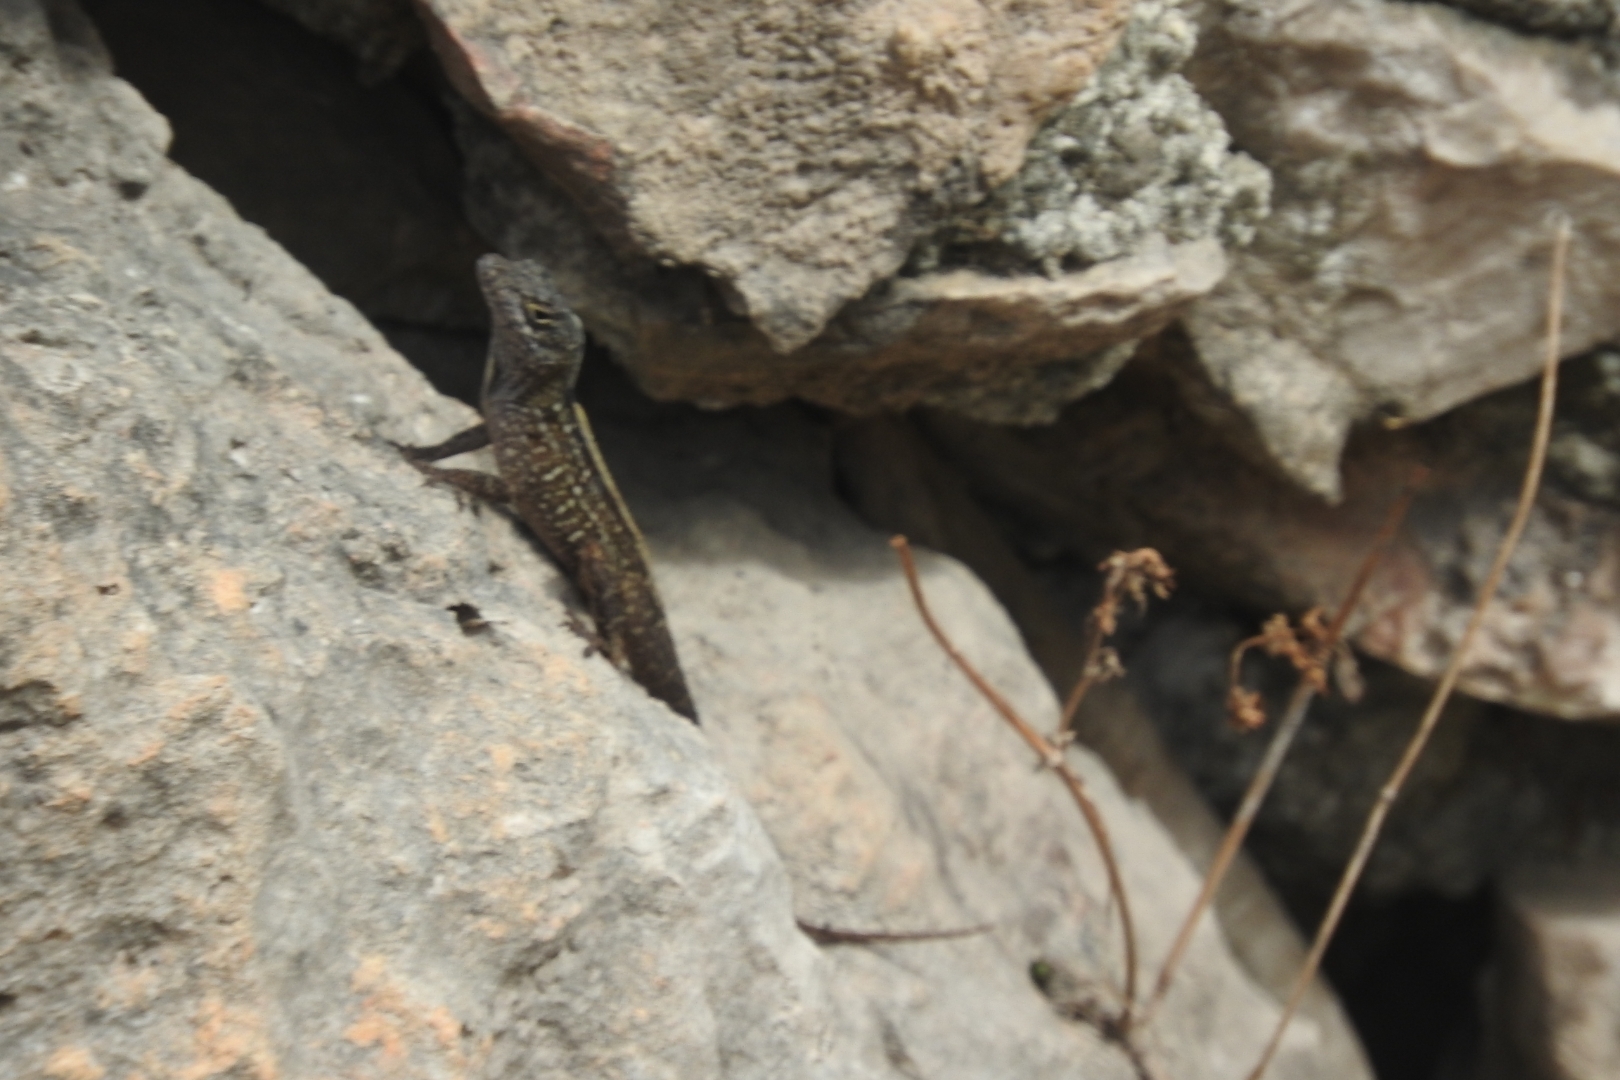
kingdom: Animalia
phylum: Chordata
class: Squamata
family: Dactyloidae
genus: Anolis
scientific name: Anolis sagrei
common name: Brown anole
